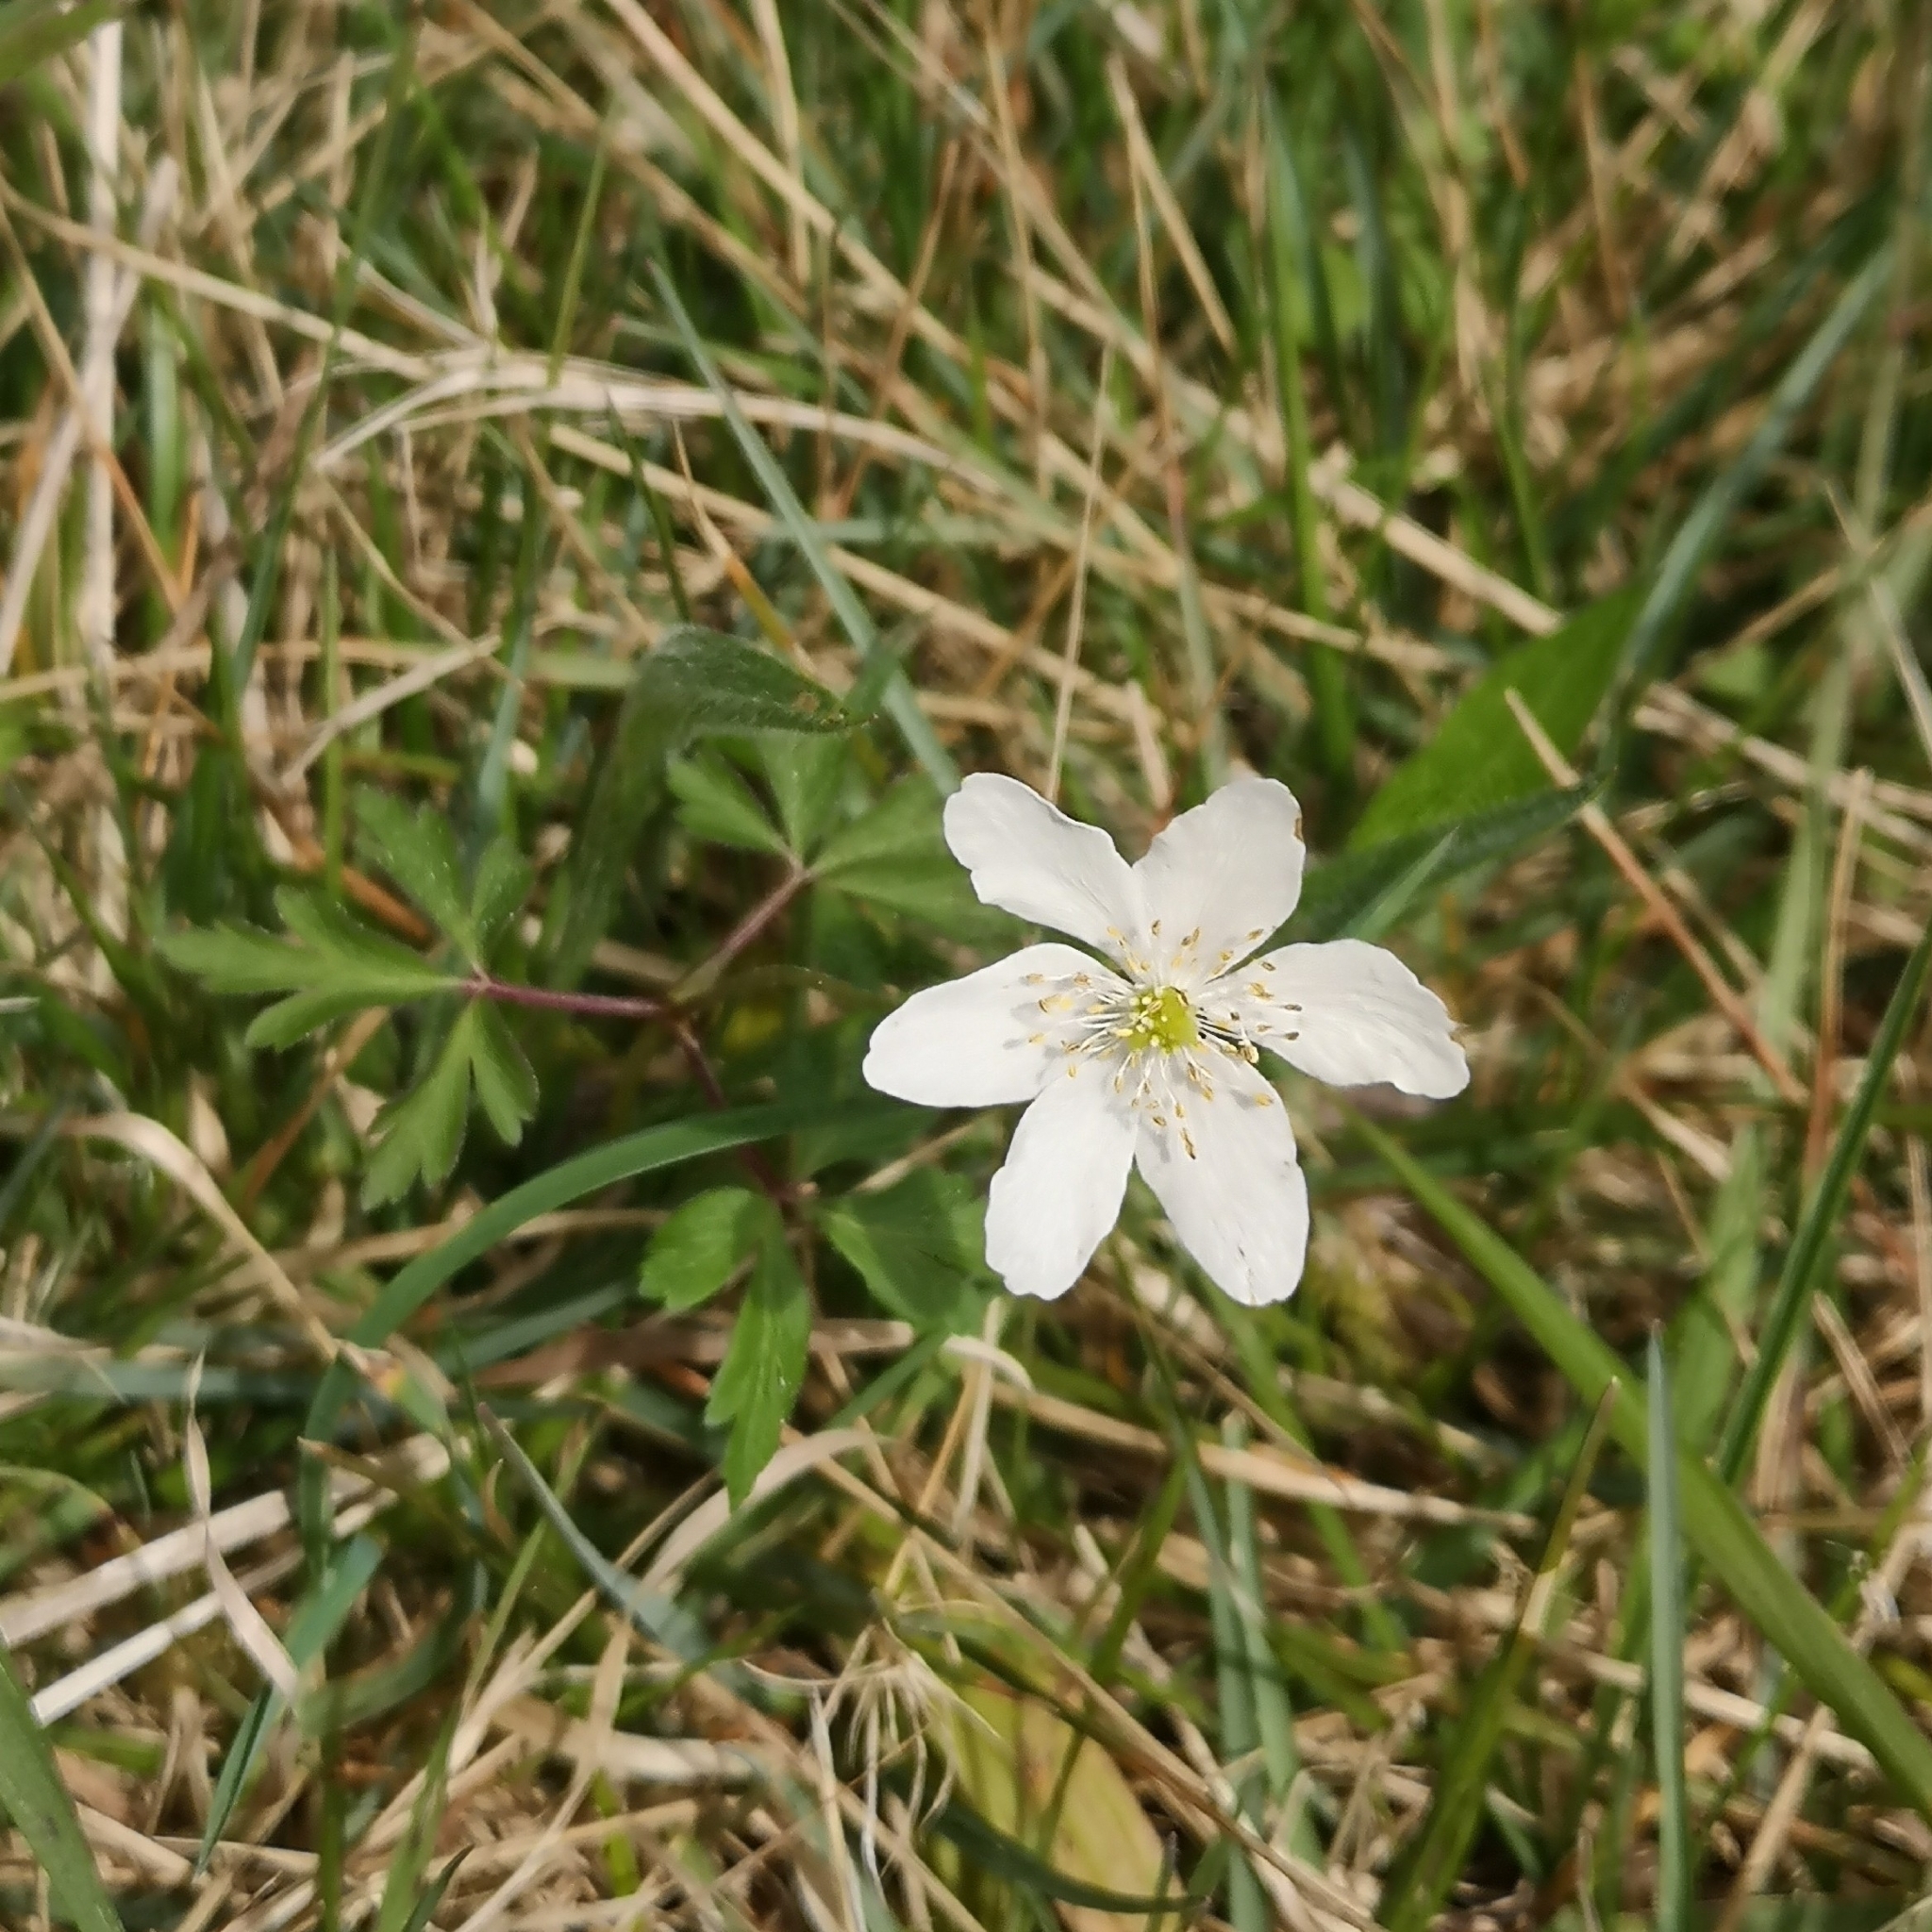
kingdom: Plantae
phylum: Tracheophyta
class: Magnoliopsida
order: Ranunculales
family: Ranunculaceae
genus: Anemone
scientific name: Anemone nemorosa
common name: Wood anemone
